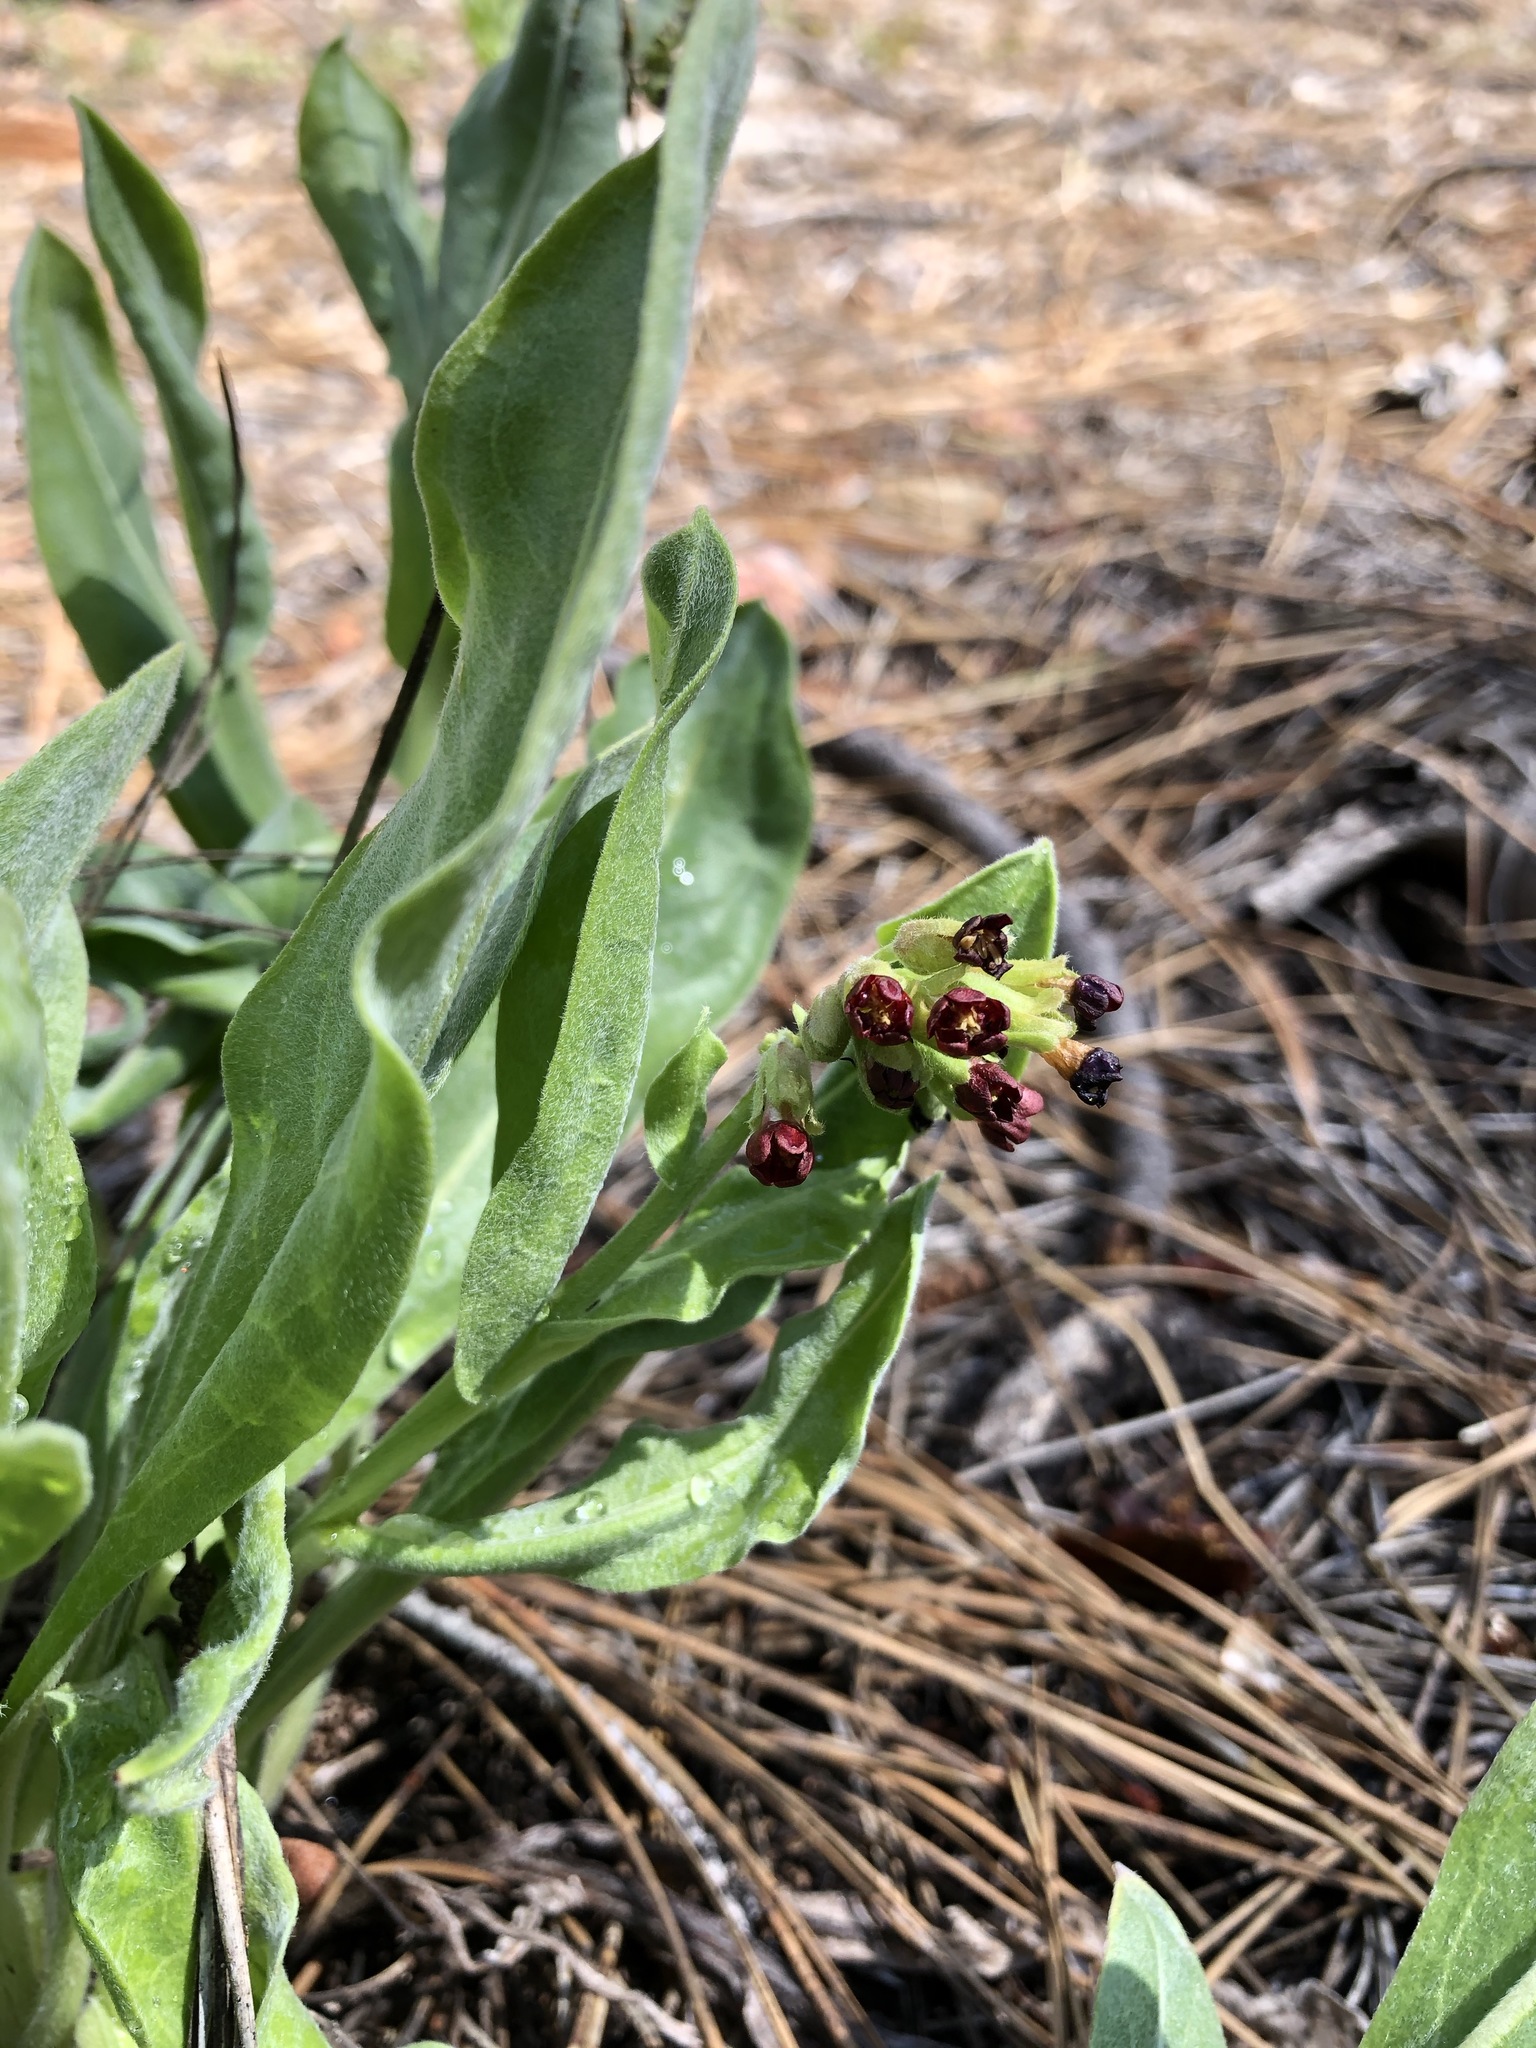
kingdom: Plantae
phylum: Tracheophyta
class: Magnoliopsida
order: Boraginales
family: Boraginaceae
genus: Andersonglossum
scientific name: Andersonglossum occidentale
